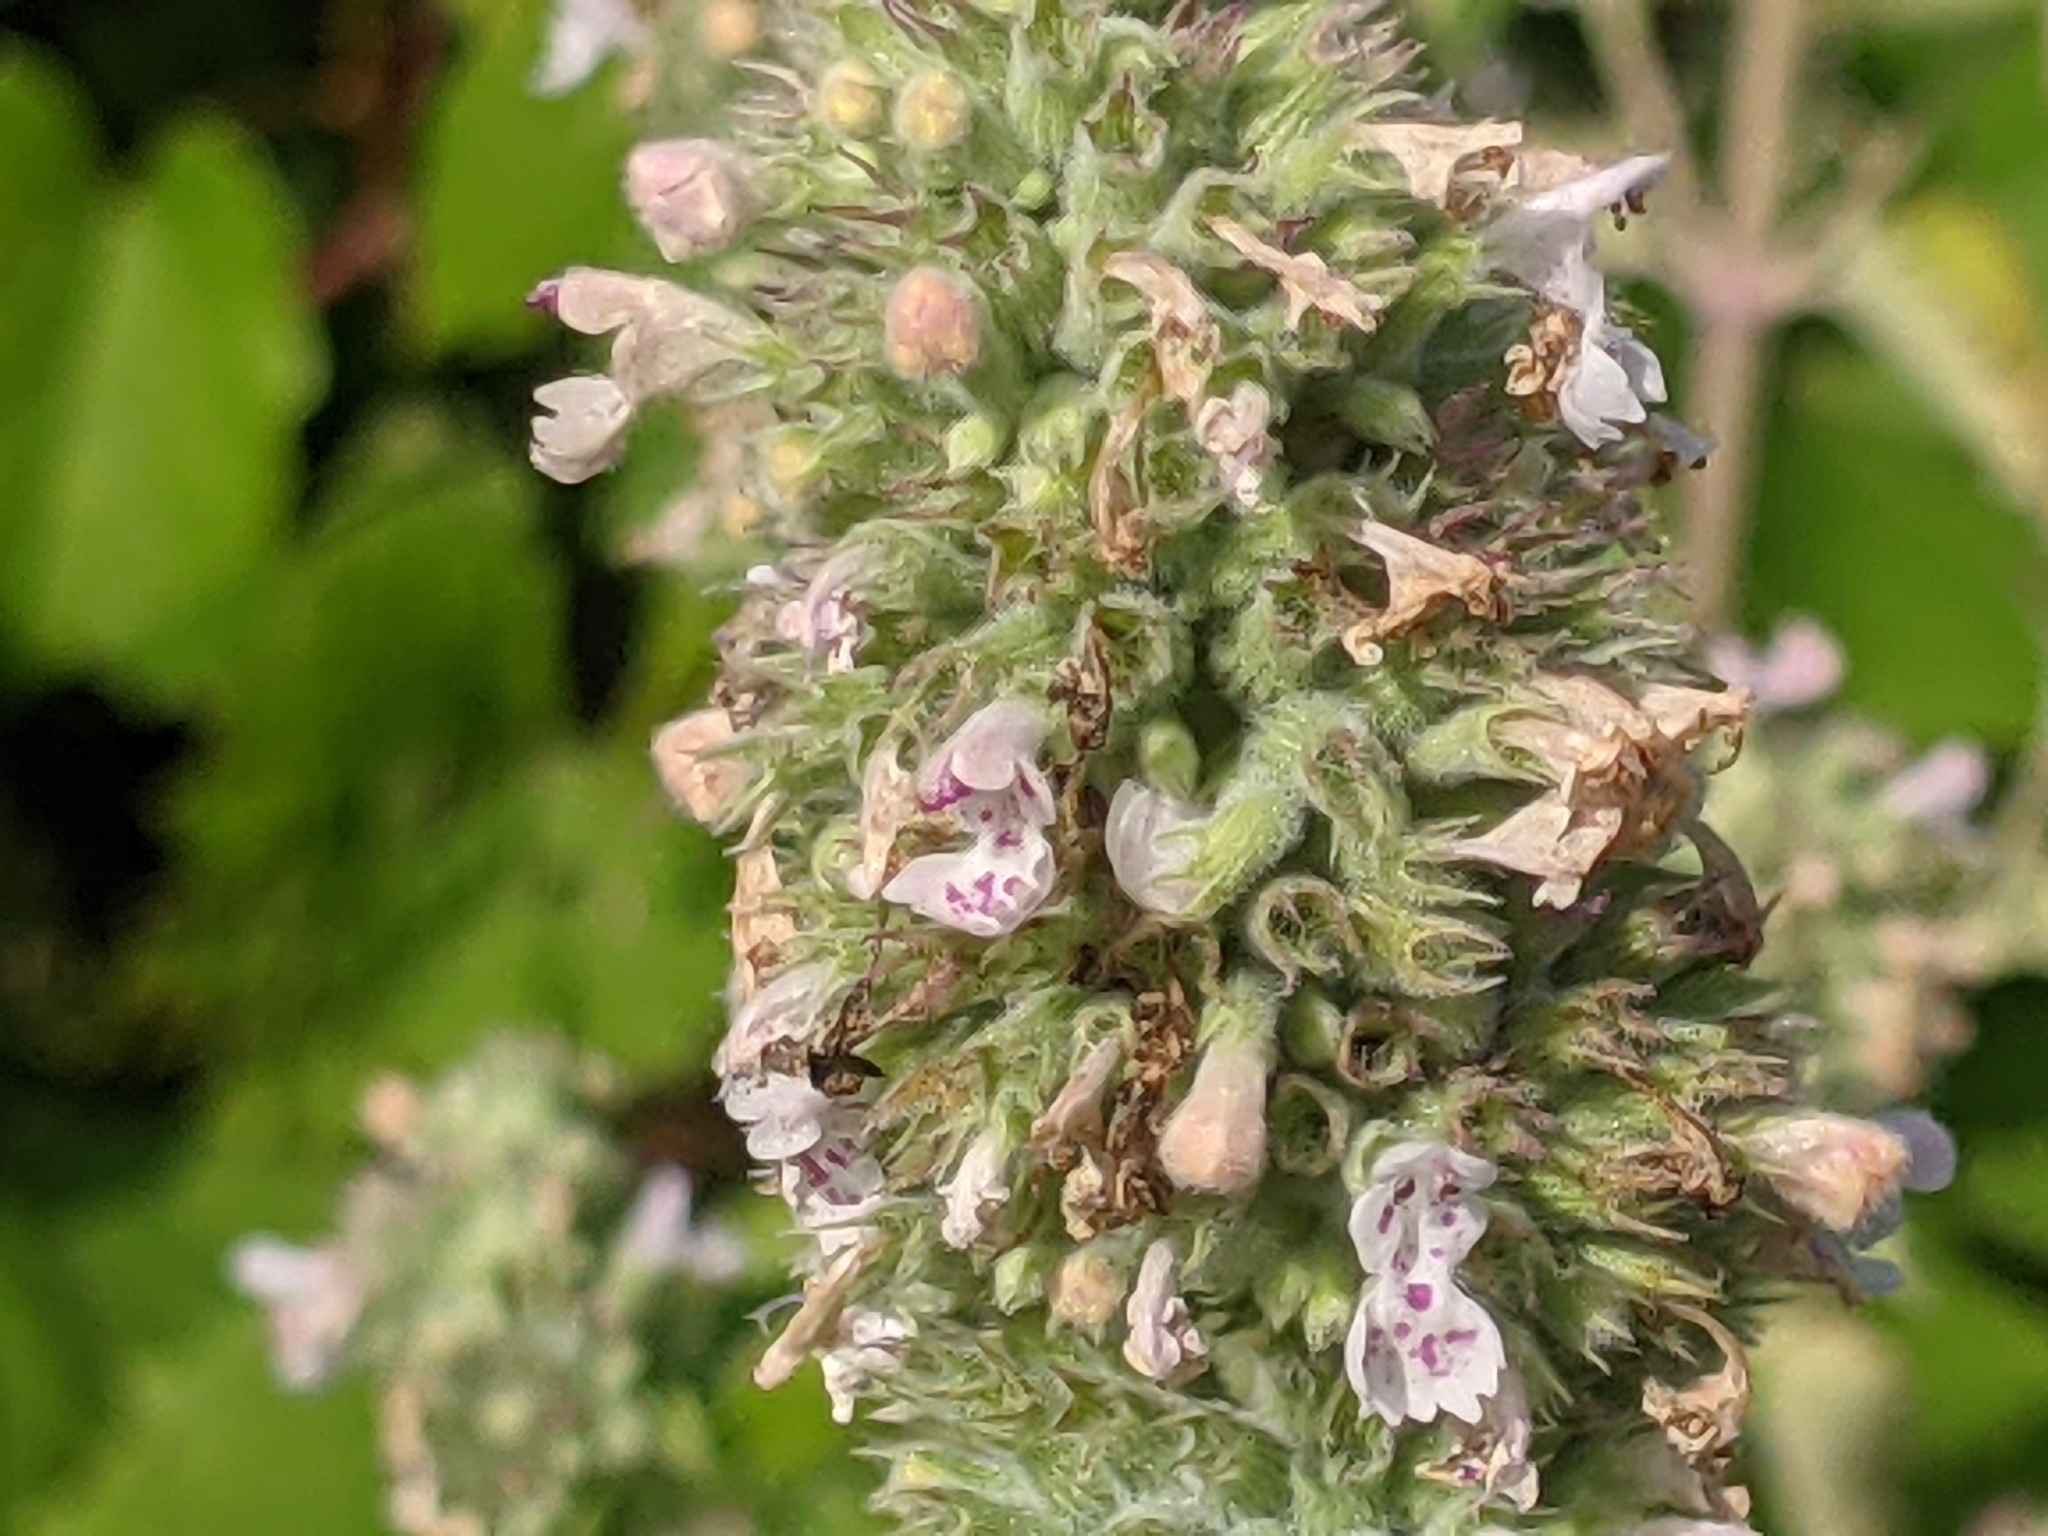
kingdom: Plantae
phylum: Tracheophyta
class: Magnoliopsida
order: Lamiales
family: Lamiaceae
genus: Nepeta
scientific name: Nepeta cataria
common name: Catnip
